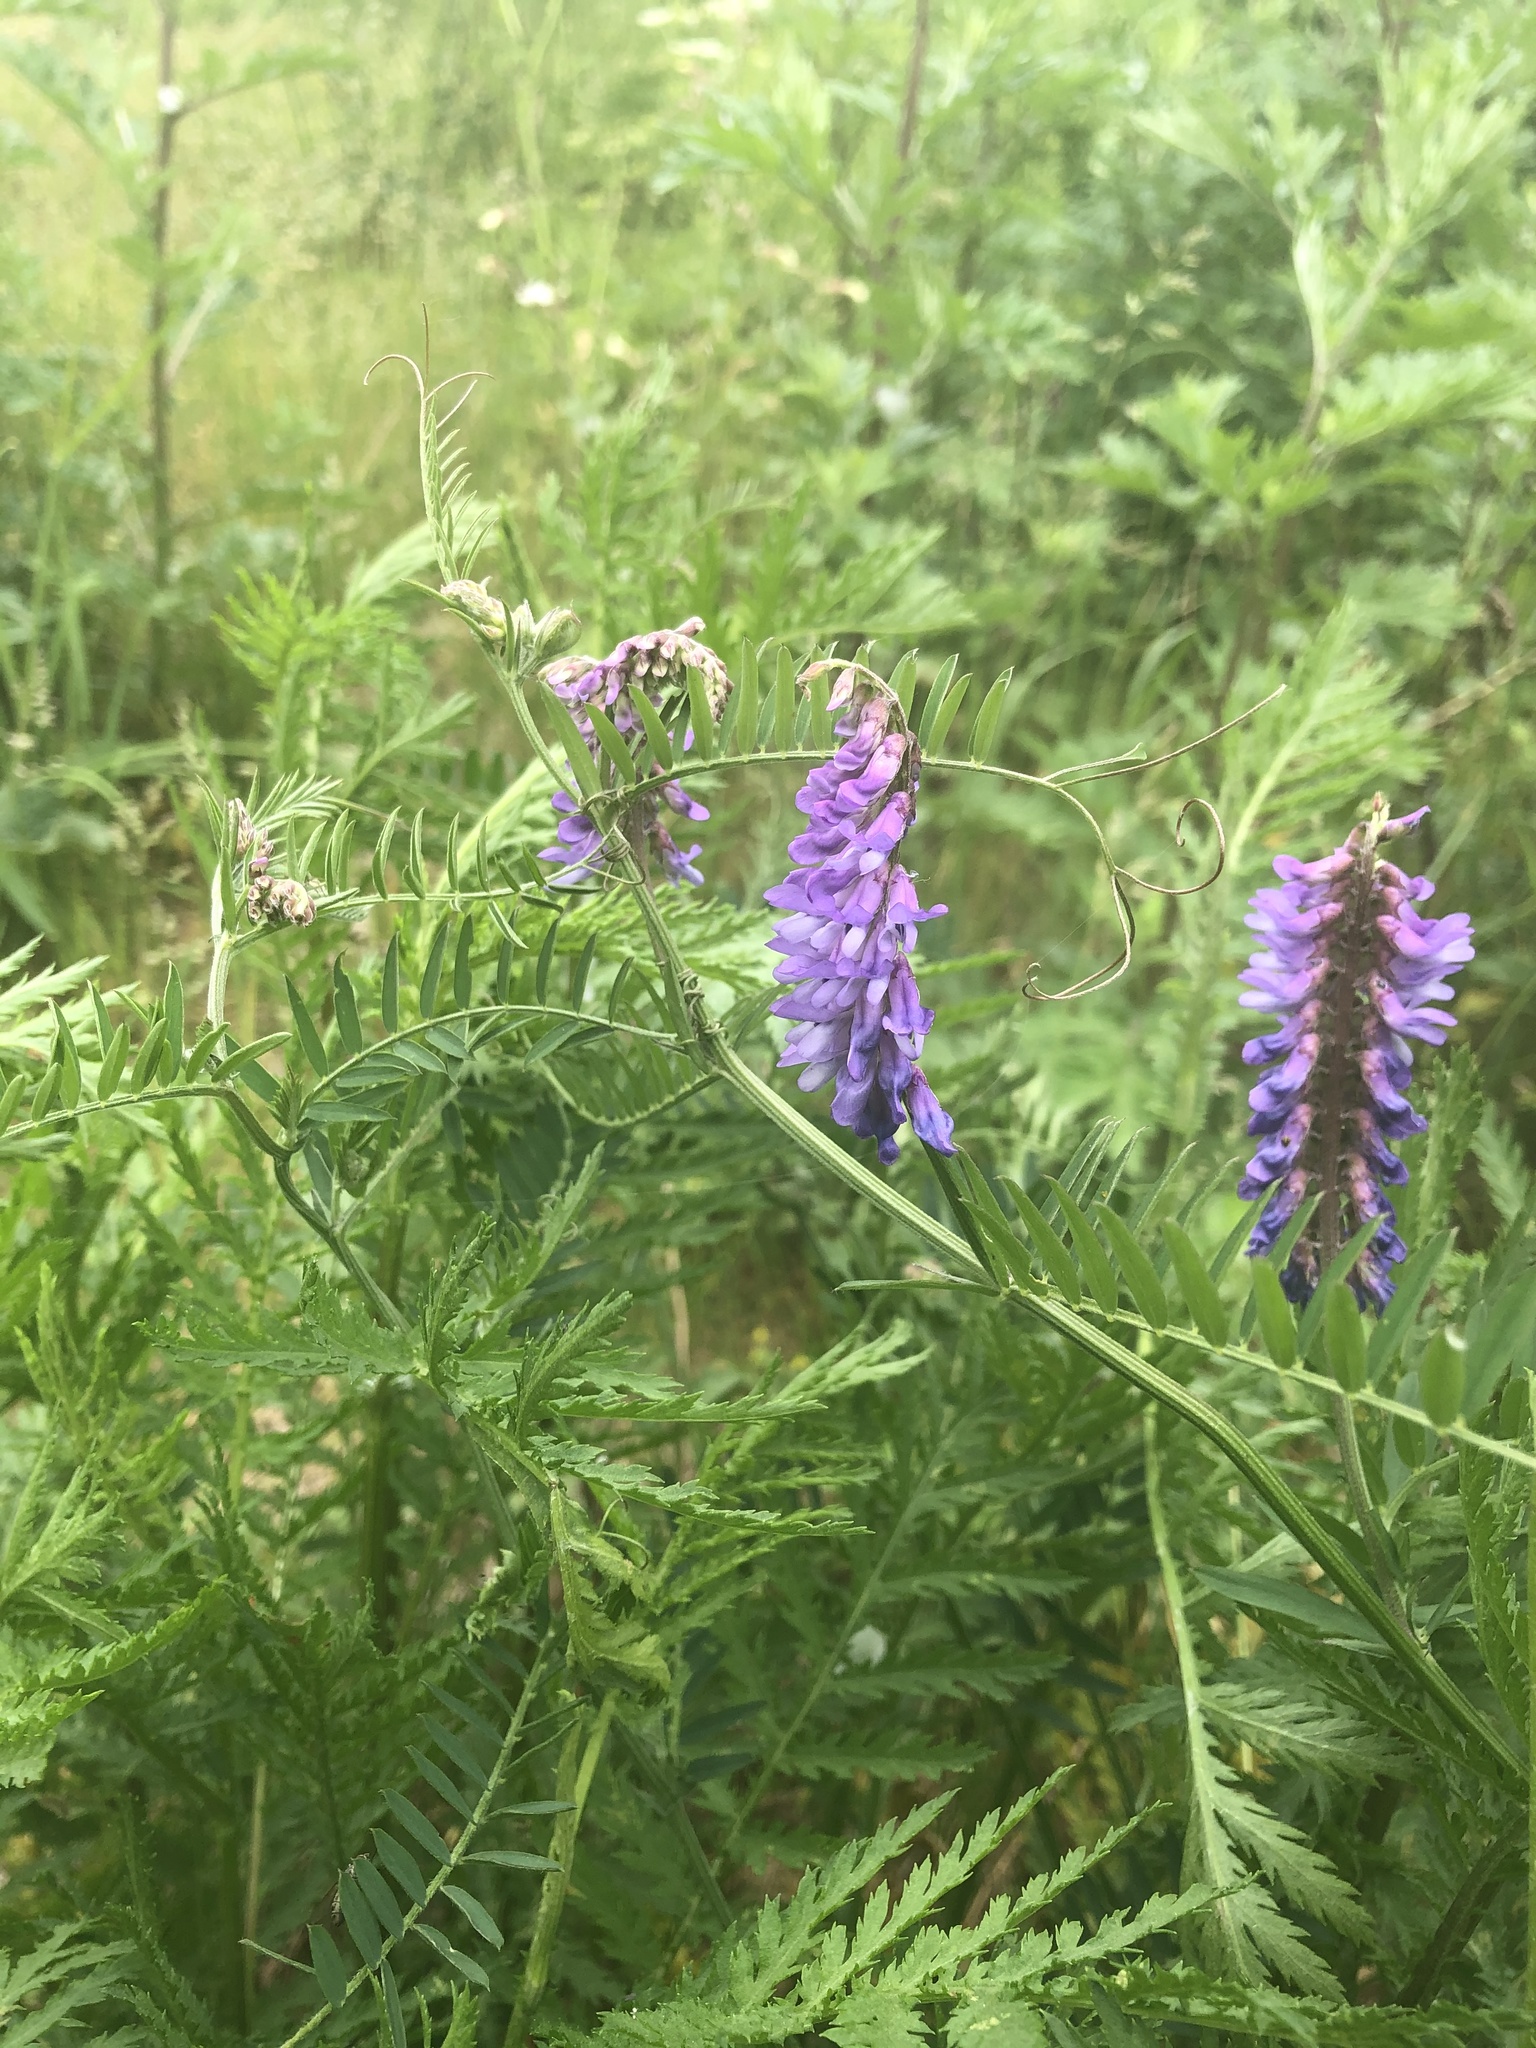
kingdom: Plantae
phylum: Tracheophyta
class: Magnoliopsida
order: Fabales
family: Fabaceae
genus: Vicia
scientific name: Vicia cracca
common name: Bird vetch
